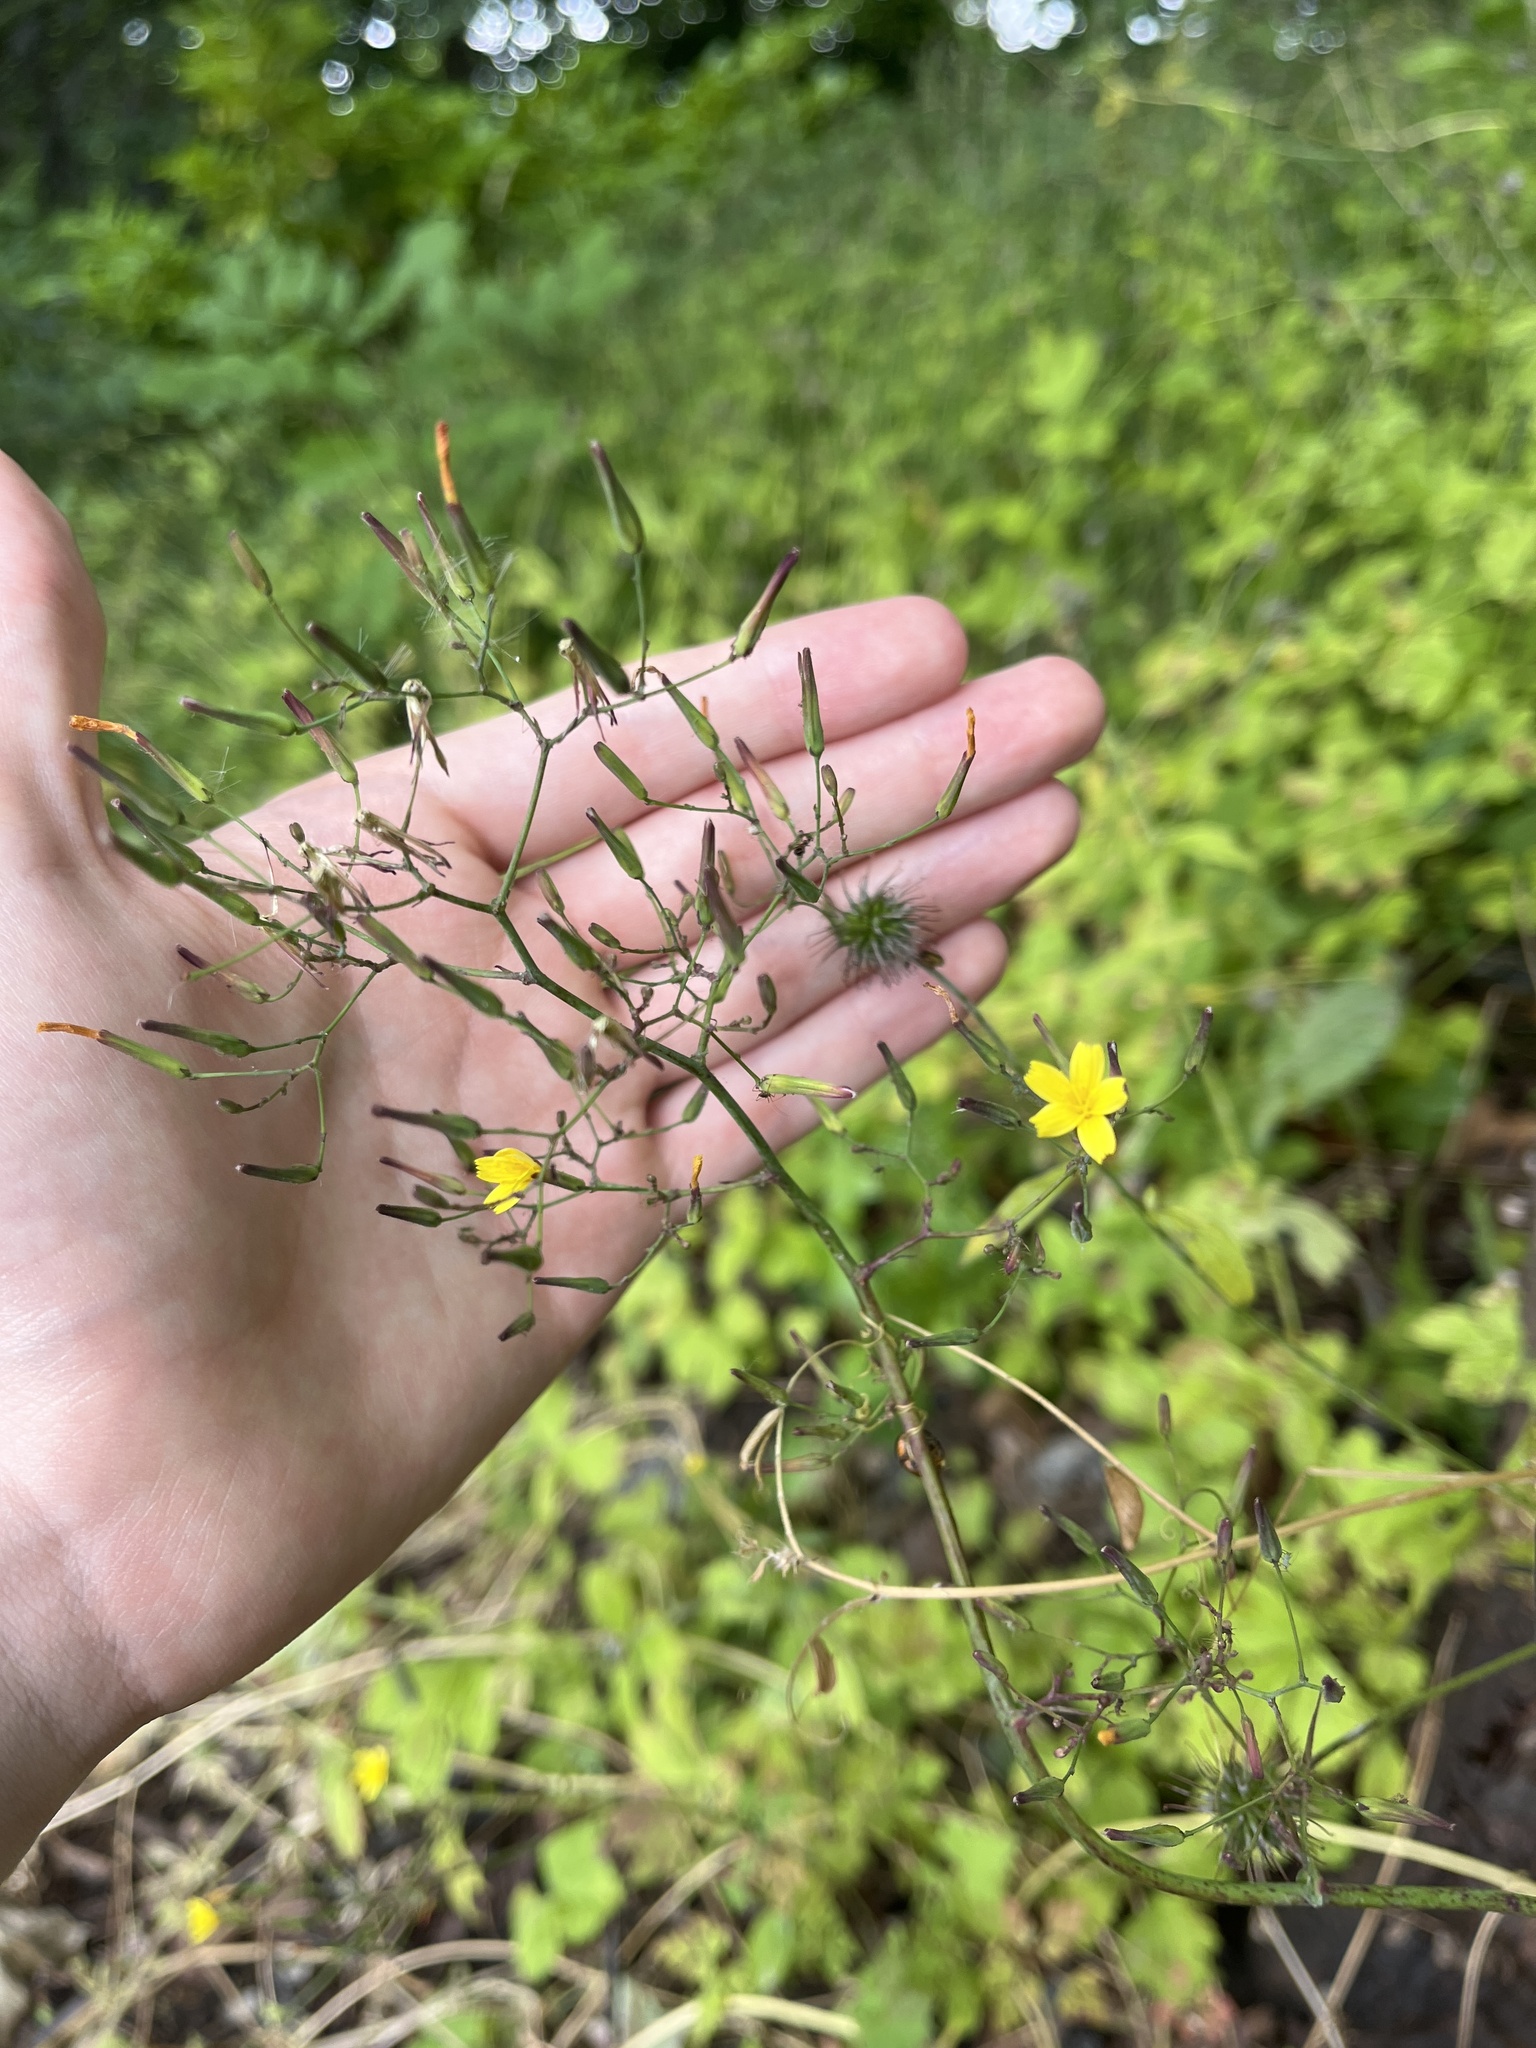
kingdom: Plantae
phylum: Tracheophyta
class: Magnoliopsida
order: Asterales
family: Asteraceae
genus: Mycelis
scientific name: Mycelis muralis
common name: Wall lettuce
